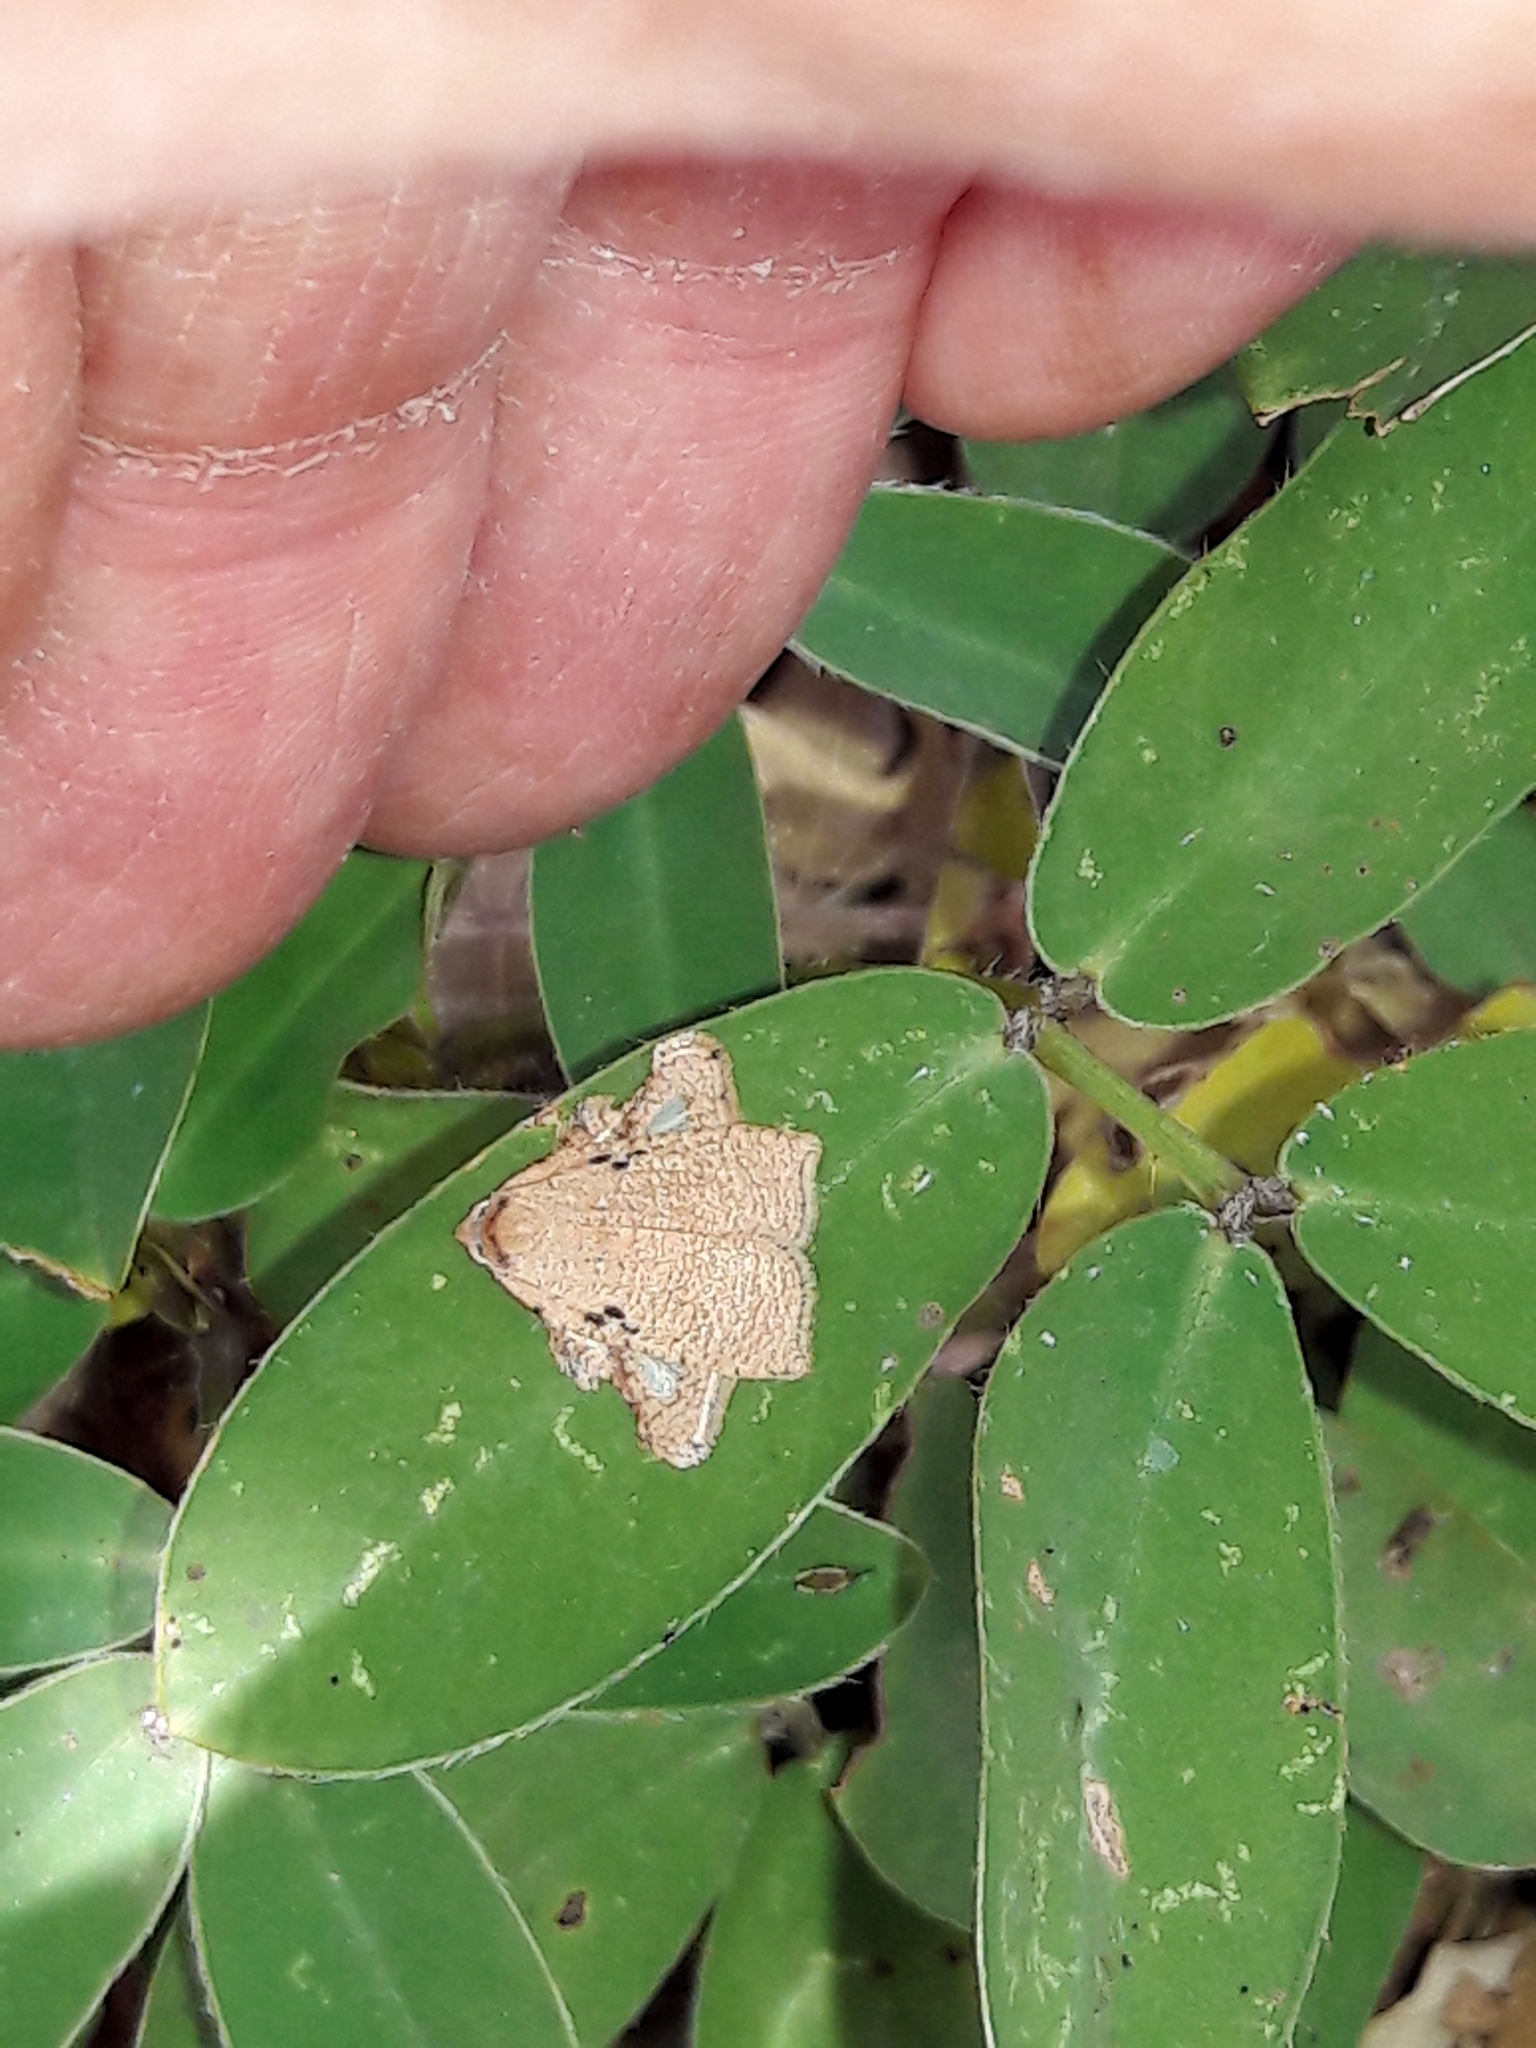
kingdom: Animalia
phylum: Arthropoda
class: Insecta
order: Lepidoptera
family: Tortricidae
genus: Amorbia
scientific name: Amorbia rectangularis
